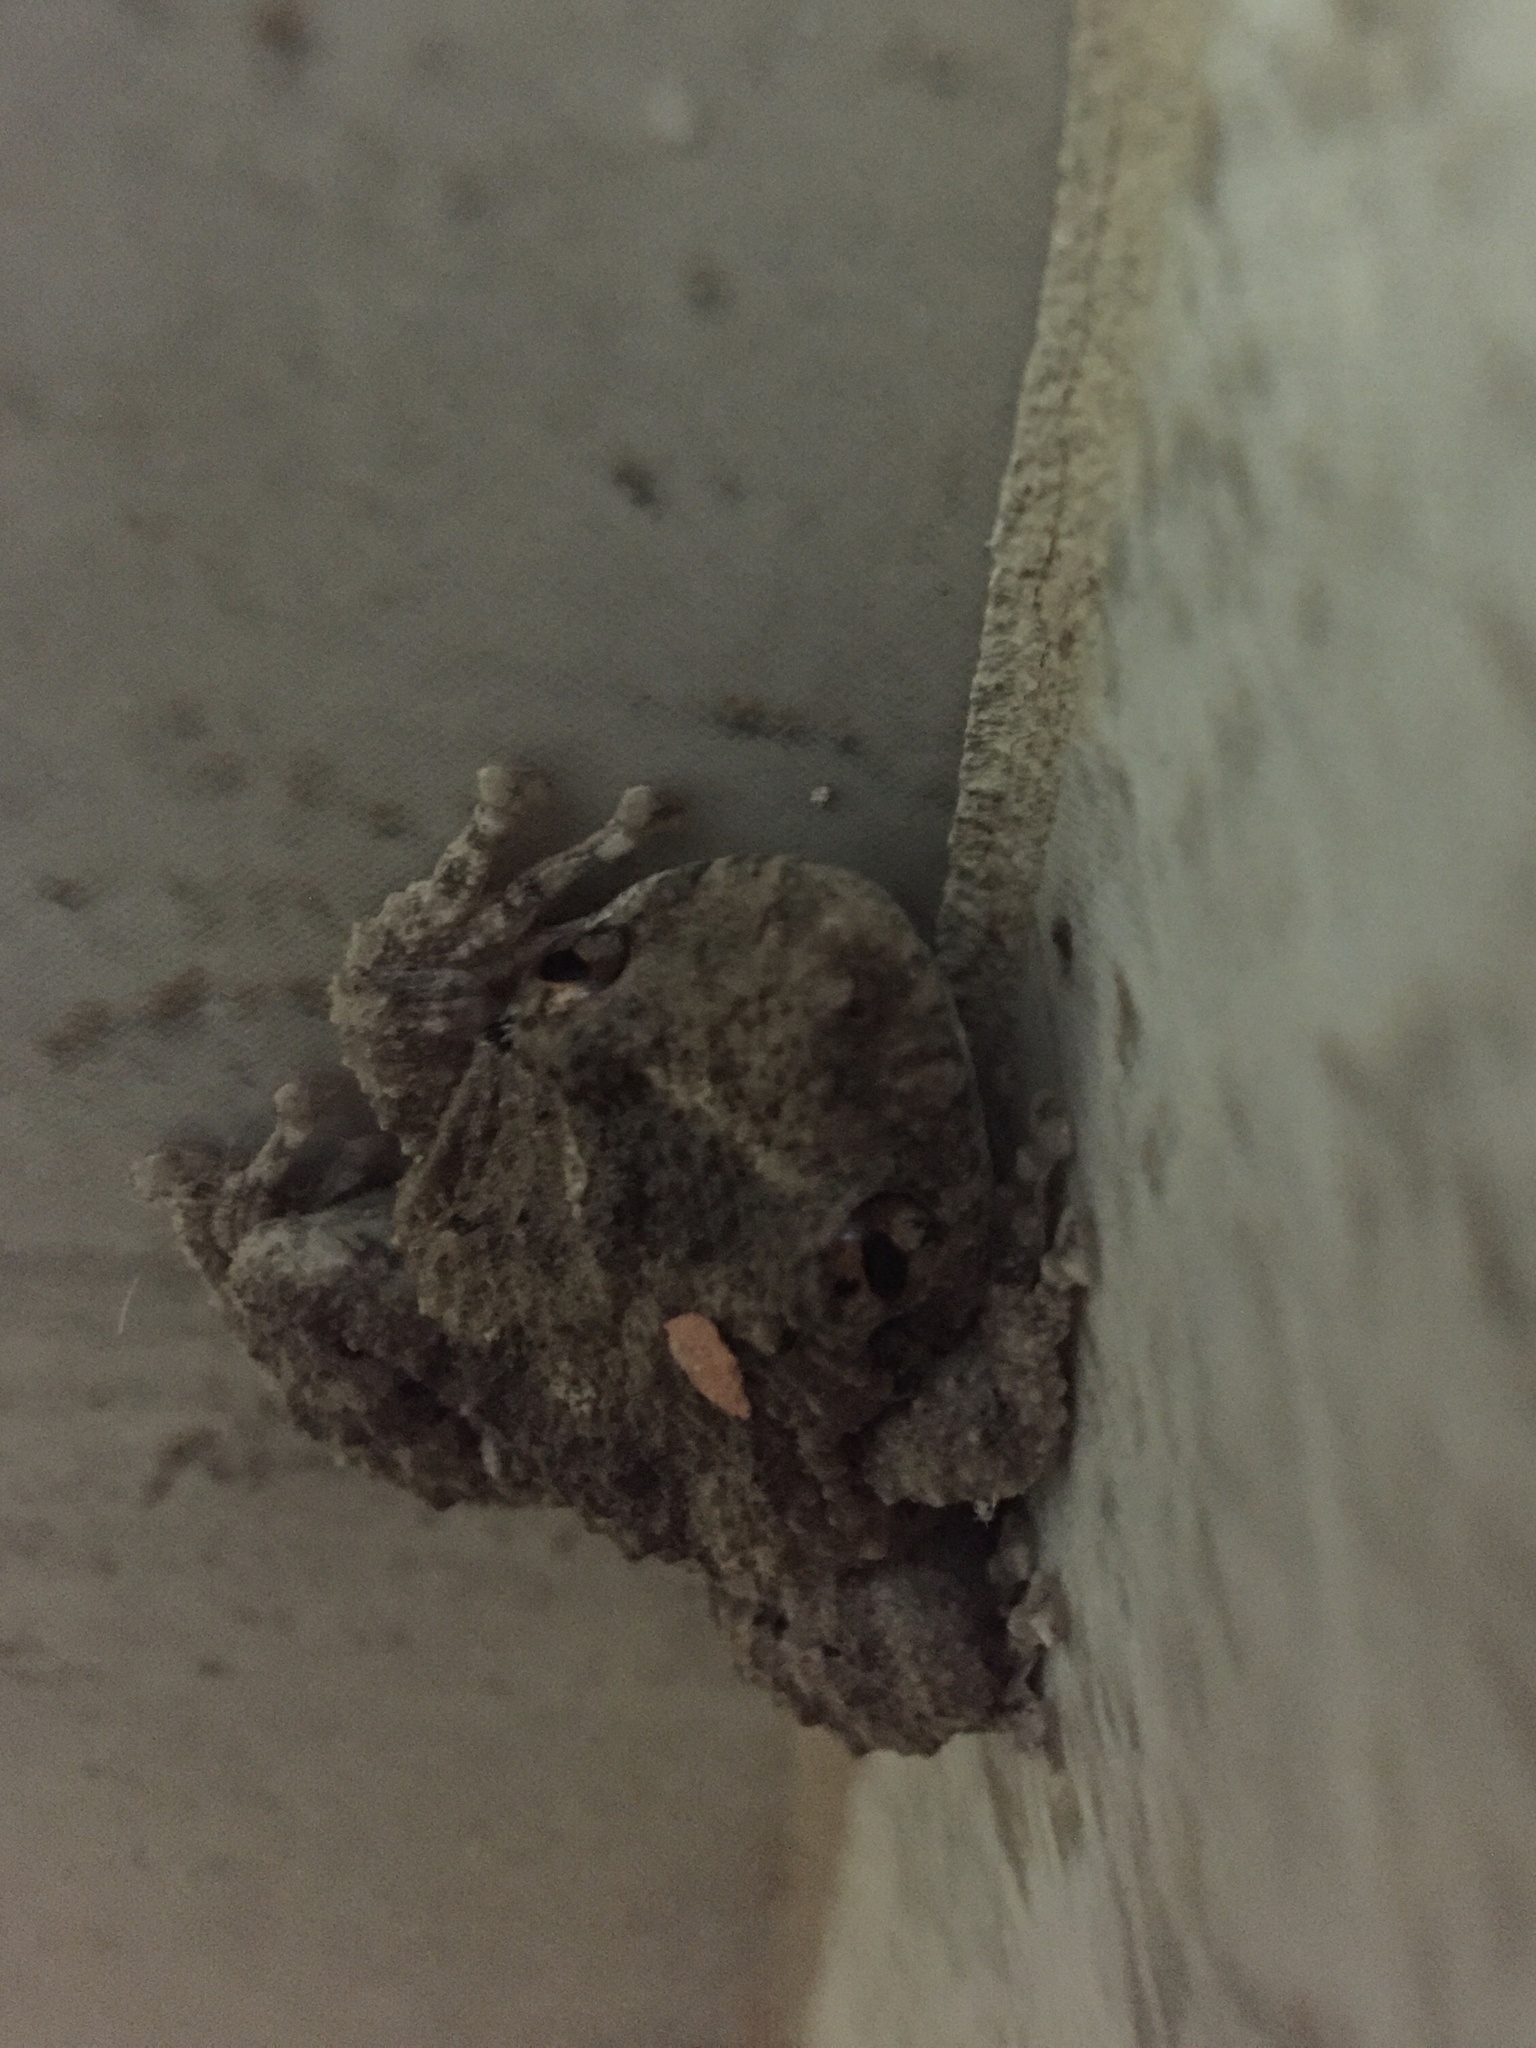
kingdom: Animalia
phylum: Chordata
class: Amphibia
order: Anura
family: Hylidae
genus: Scinax
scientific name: Scinax acuminatus
